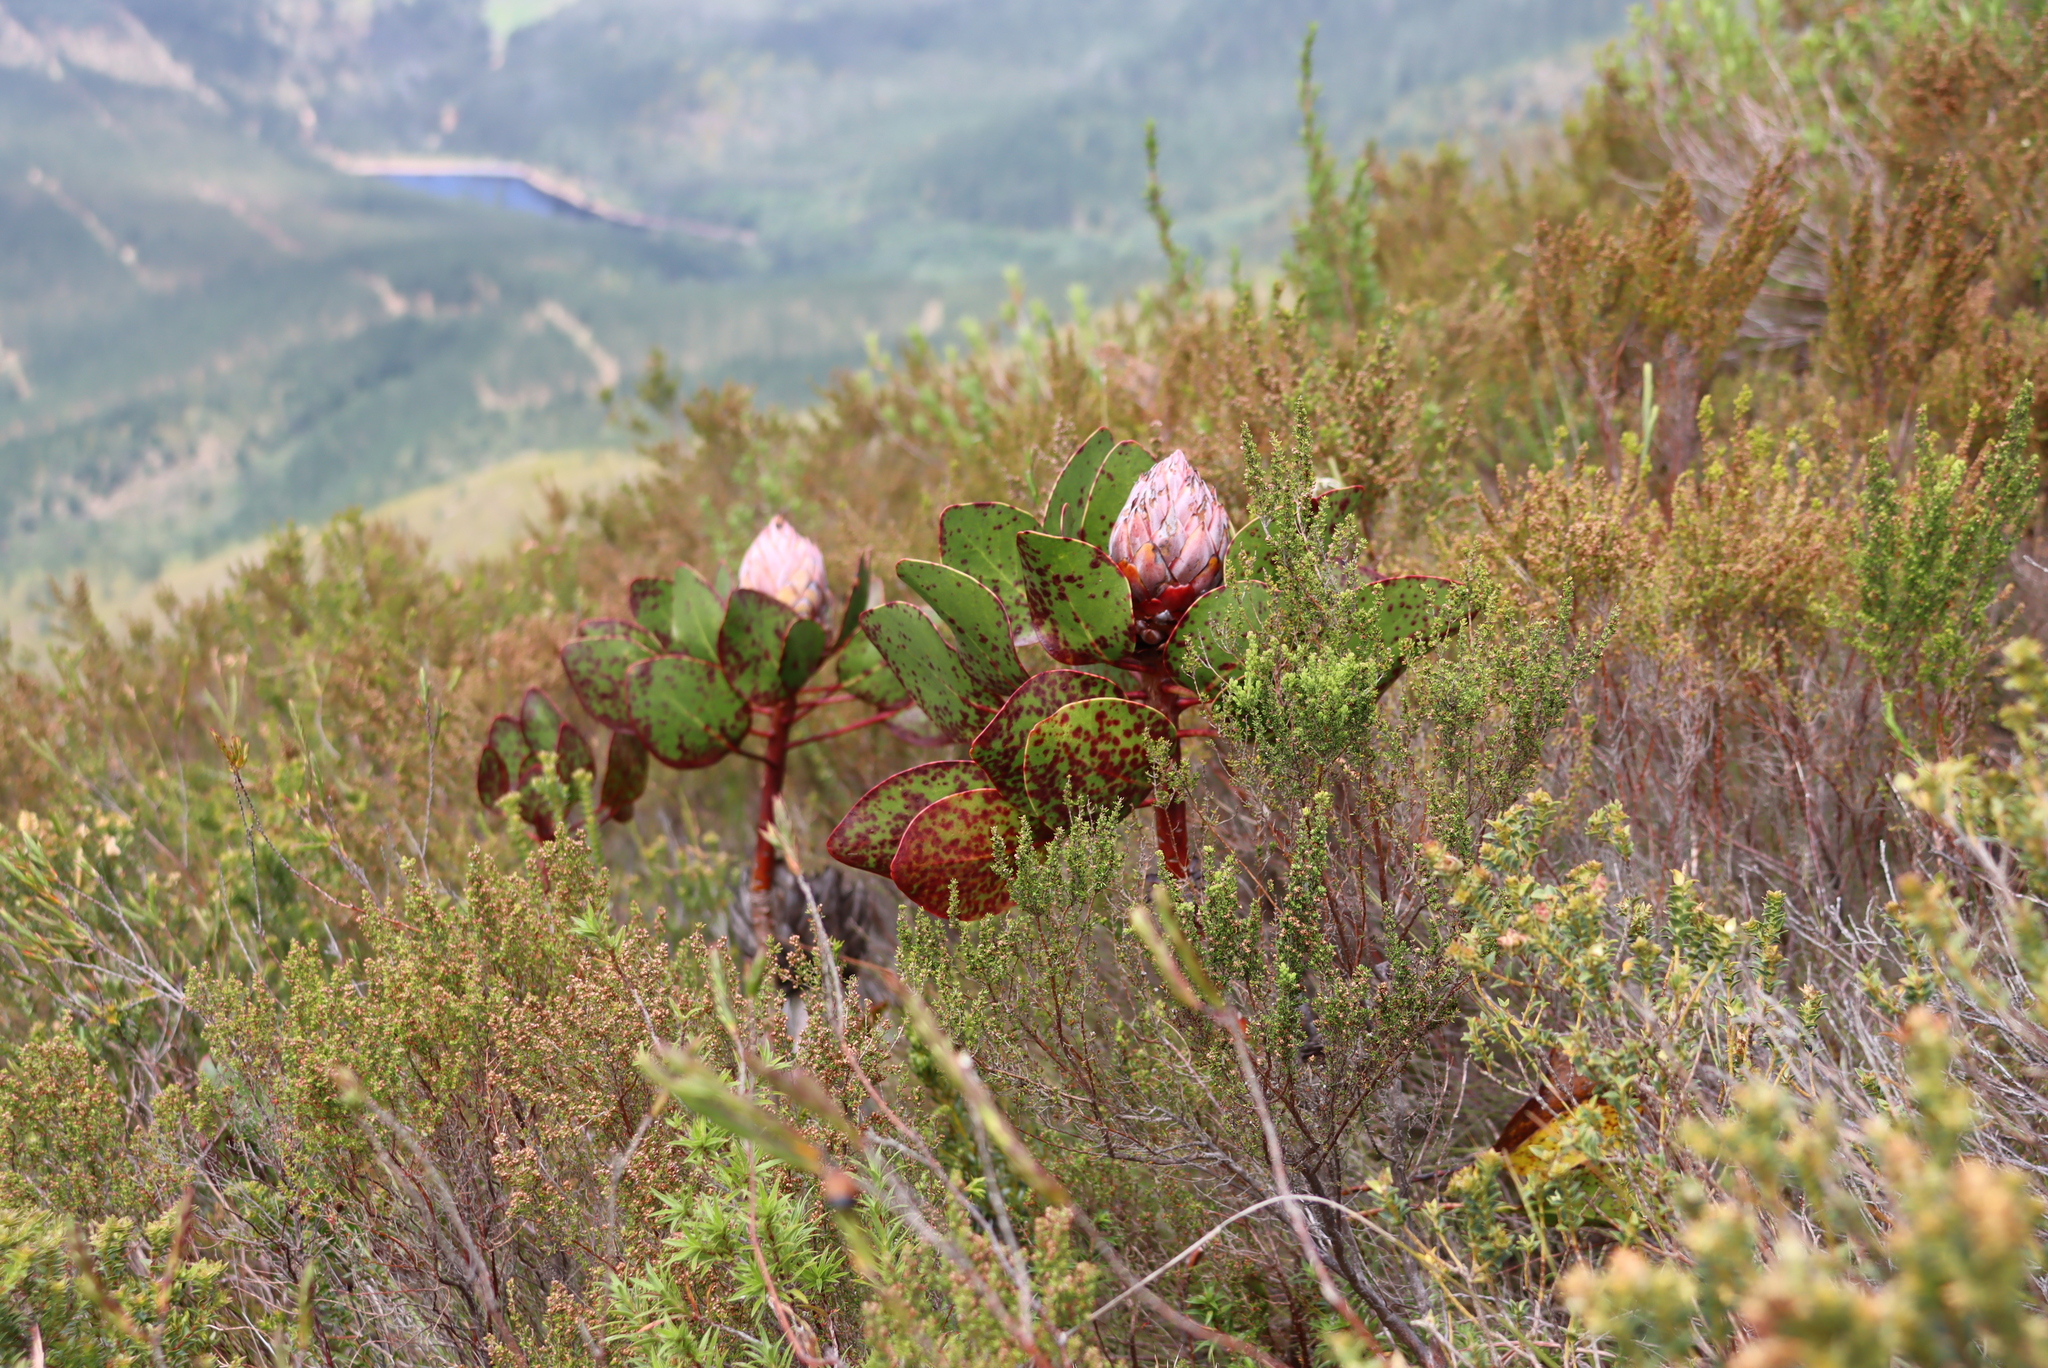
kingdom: Plantae
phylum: Tracheophyta
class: Magnoliopsida
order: Proteales
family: Proteaceae
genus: Protea
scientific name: Protea cynaroides
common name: King protea
